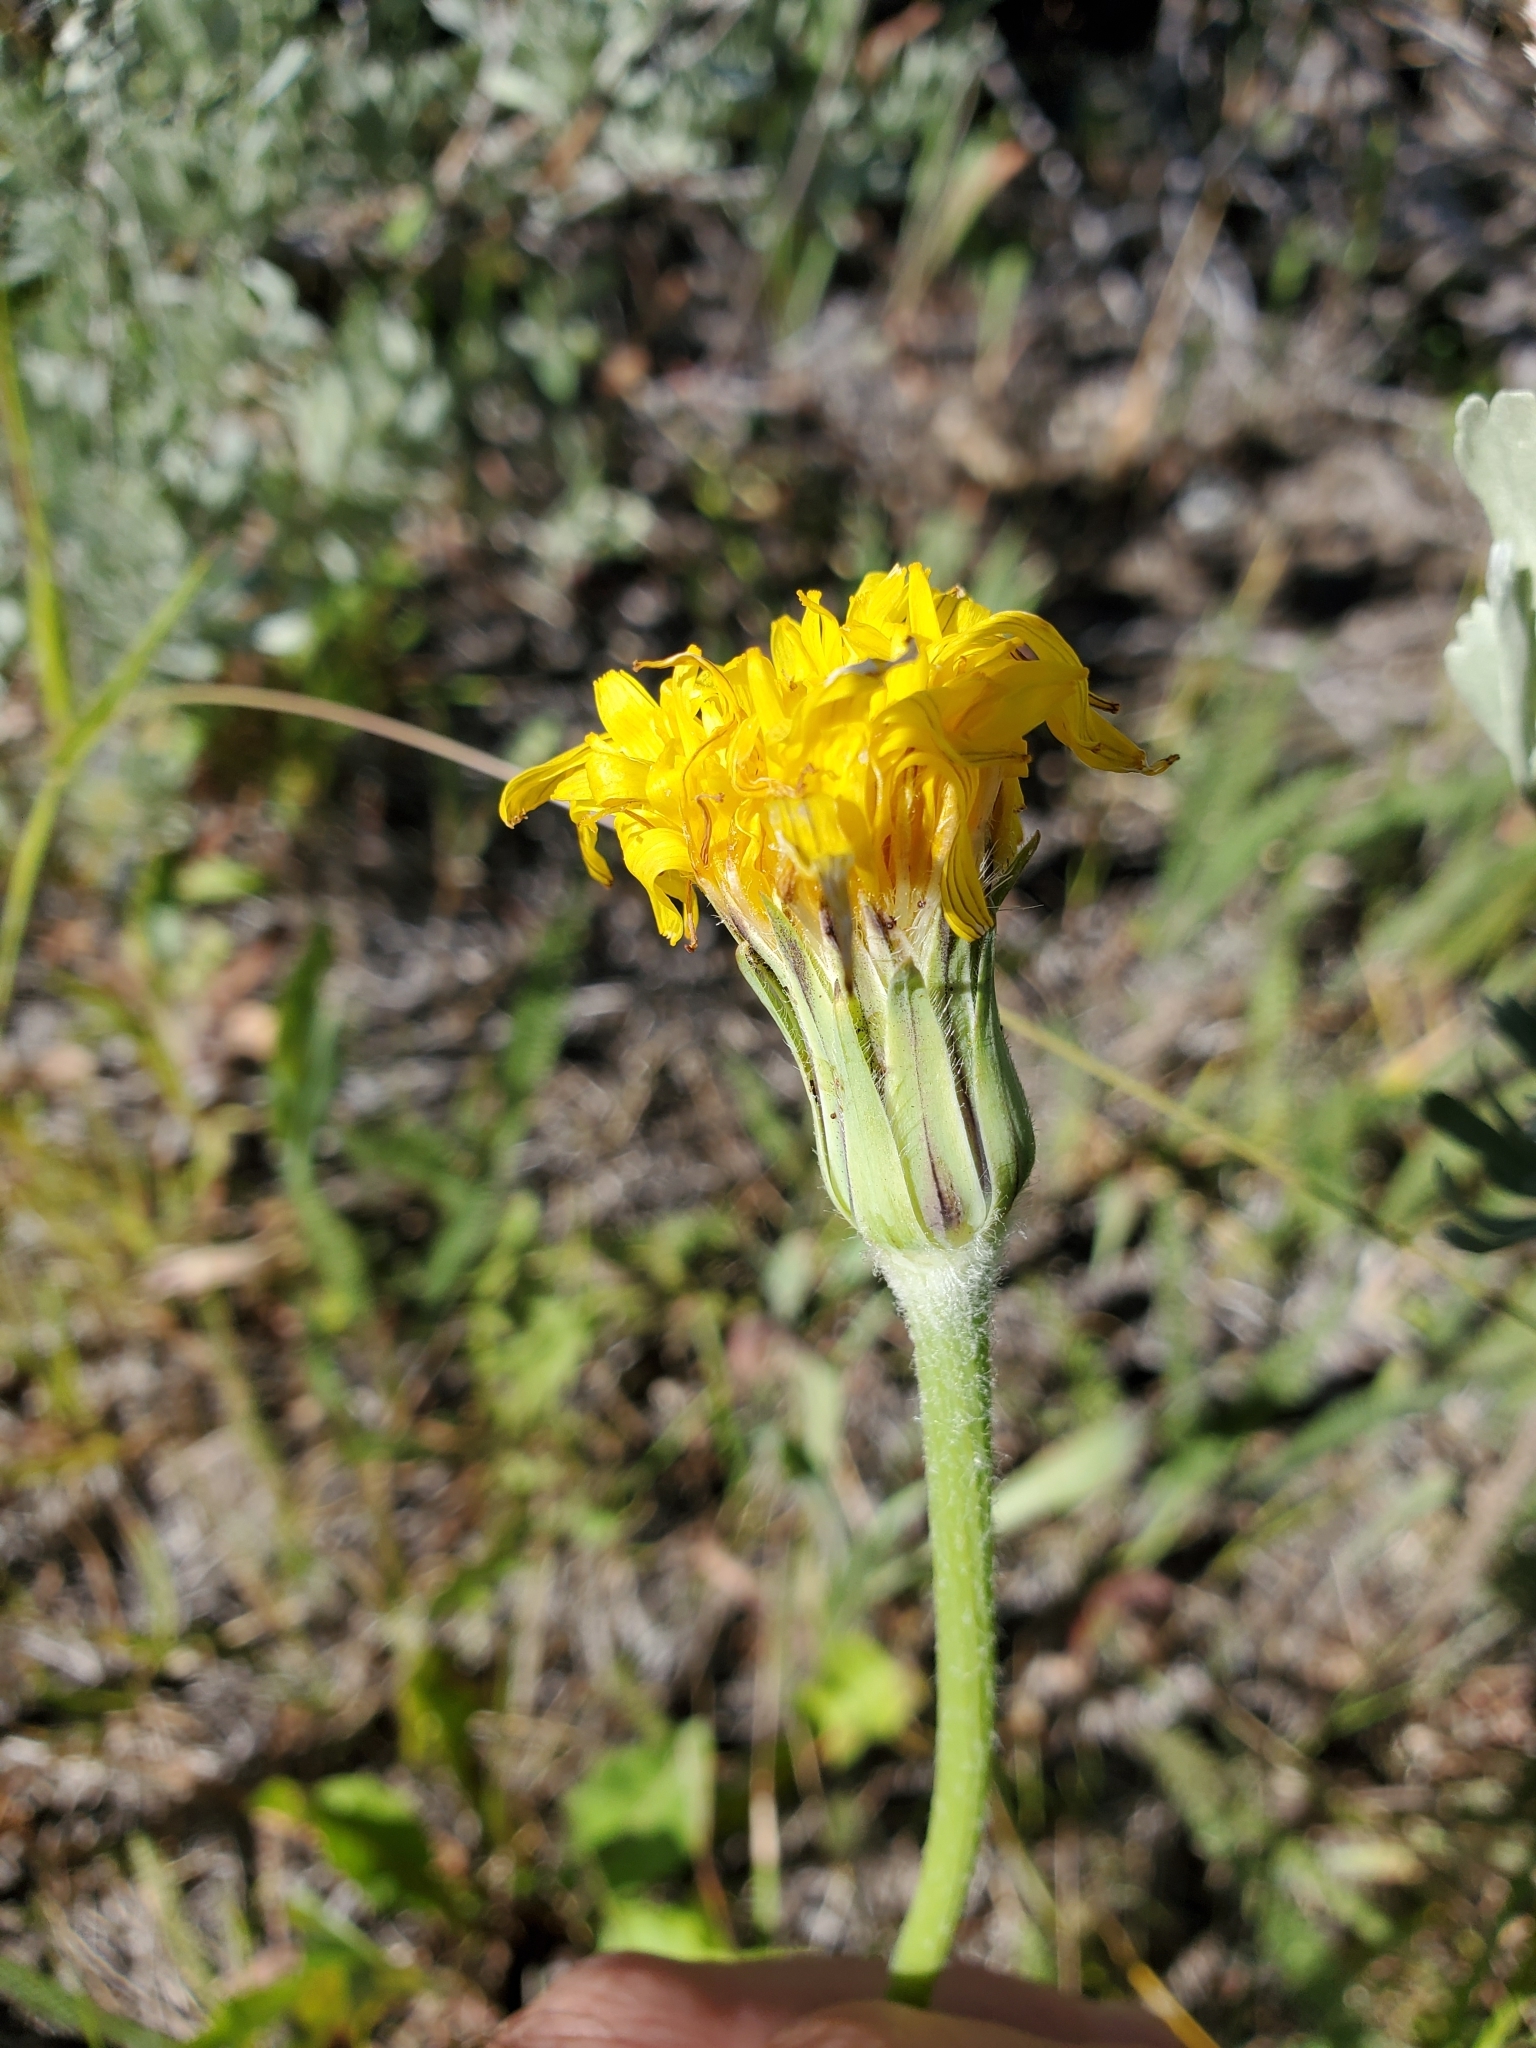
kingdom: Plantae
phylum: Tracheophyta
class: Magnoliopsida
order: Asterales
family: Asteraceae
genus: Agoseris
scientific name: Agoseris glauca
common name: Prairie agoseris
